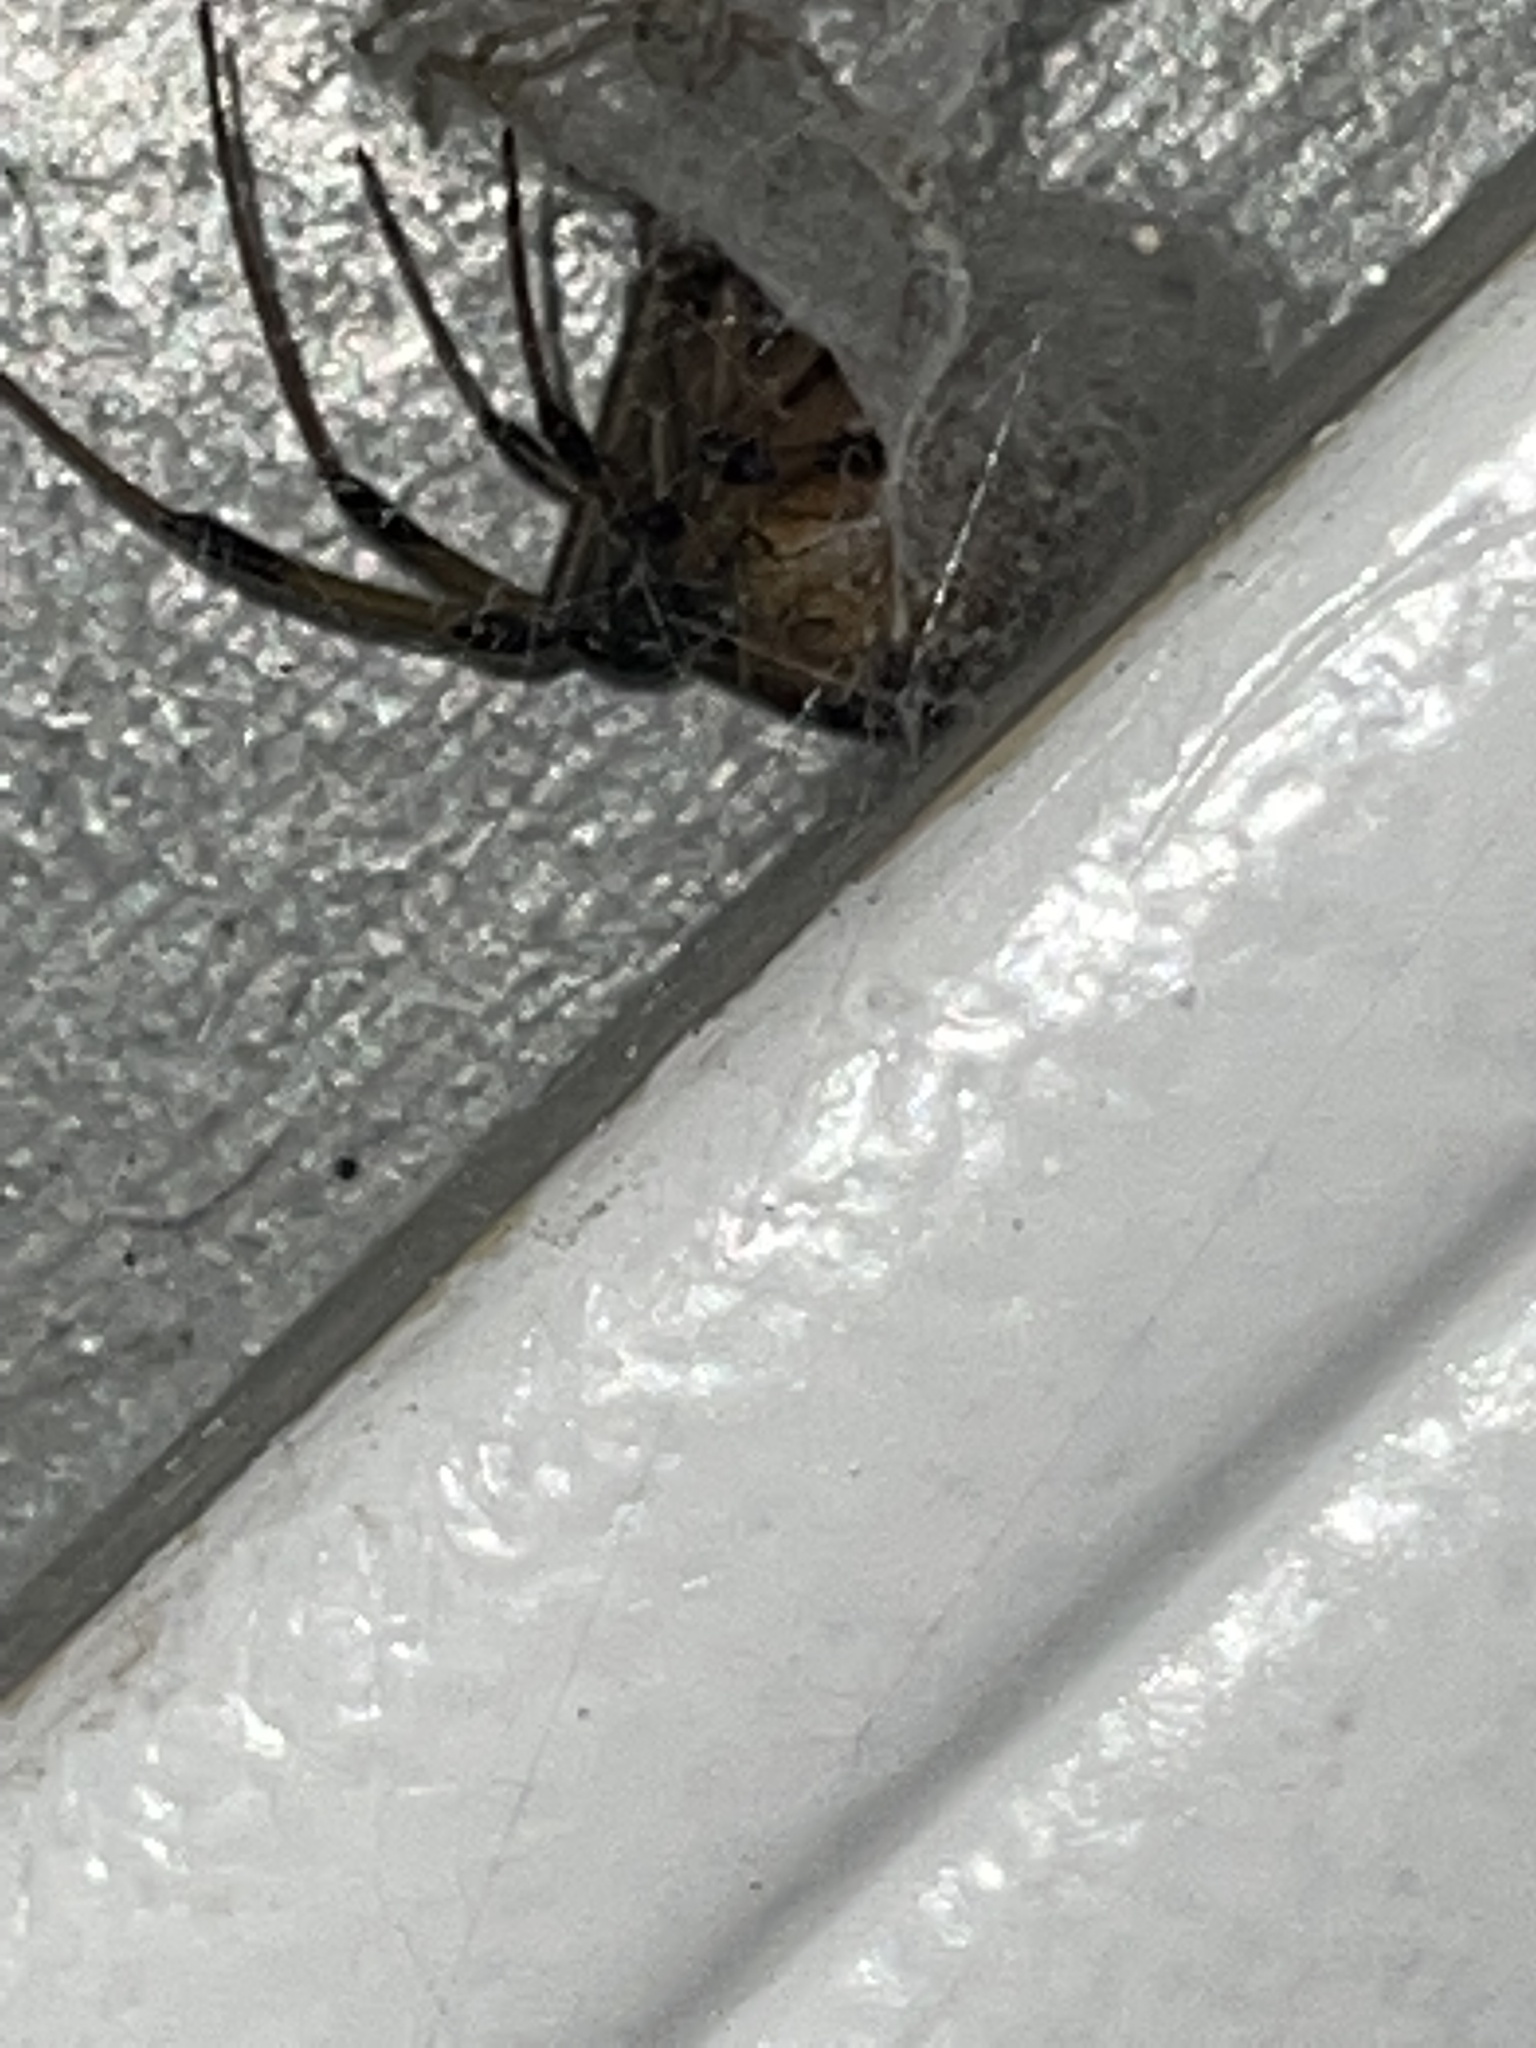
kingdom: Animalia
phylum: Arthropoda
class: Arachnida
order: Araneae
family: Theridiidae
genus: Latrodectus
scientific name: Latrodectus geometricus
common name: Brown widow spider
